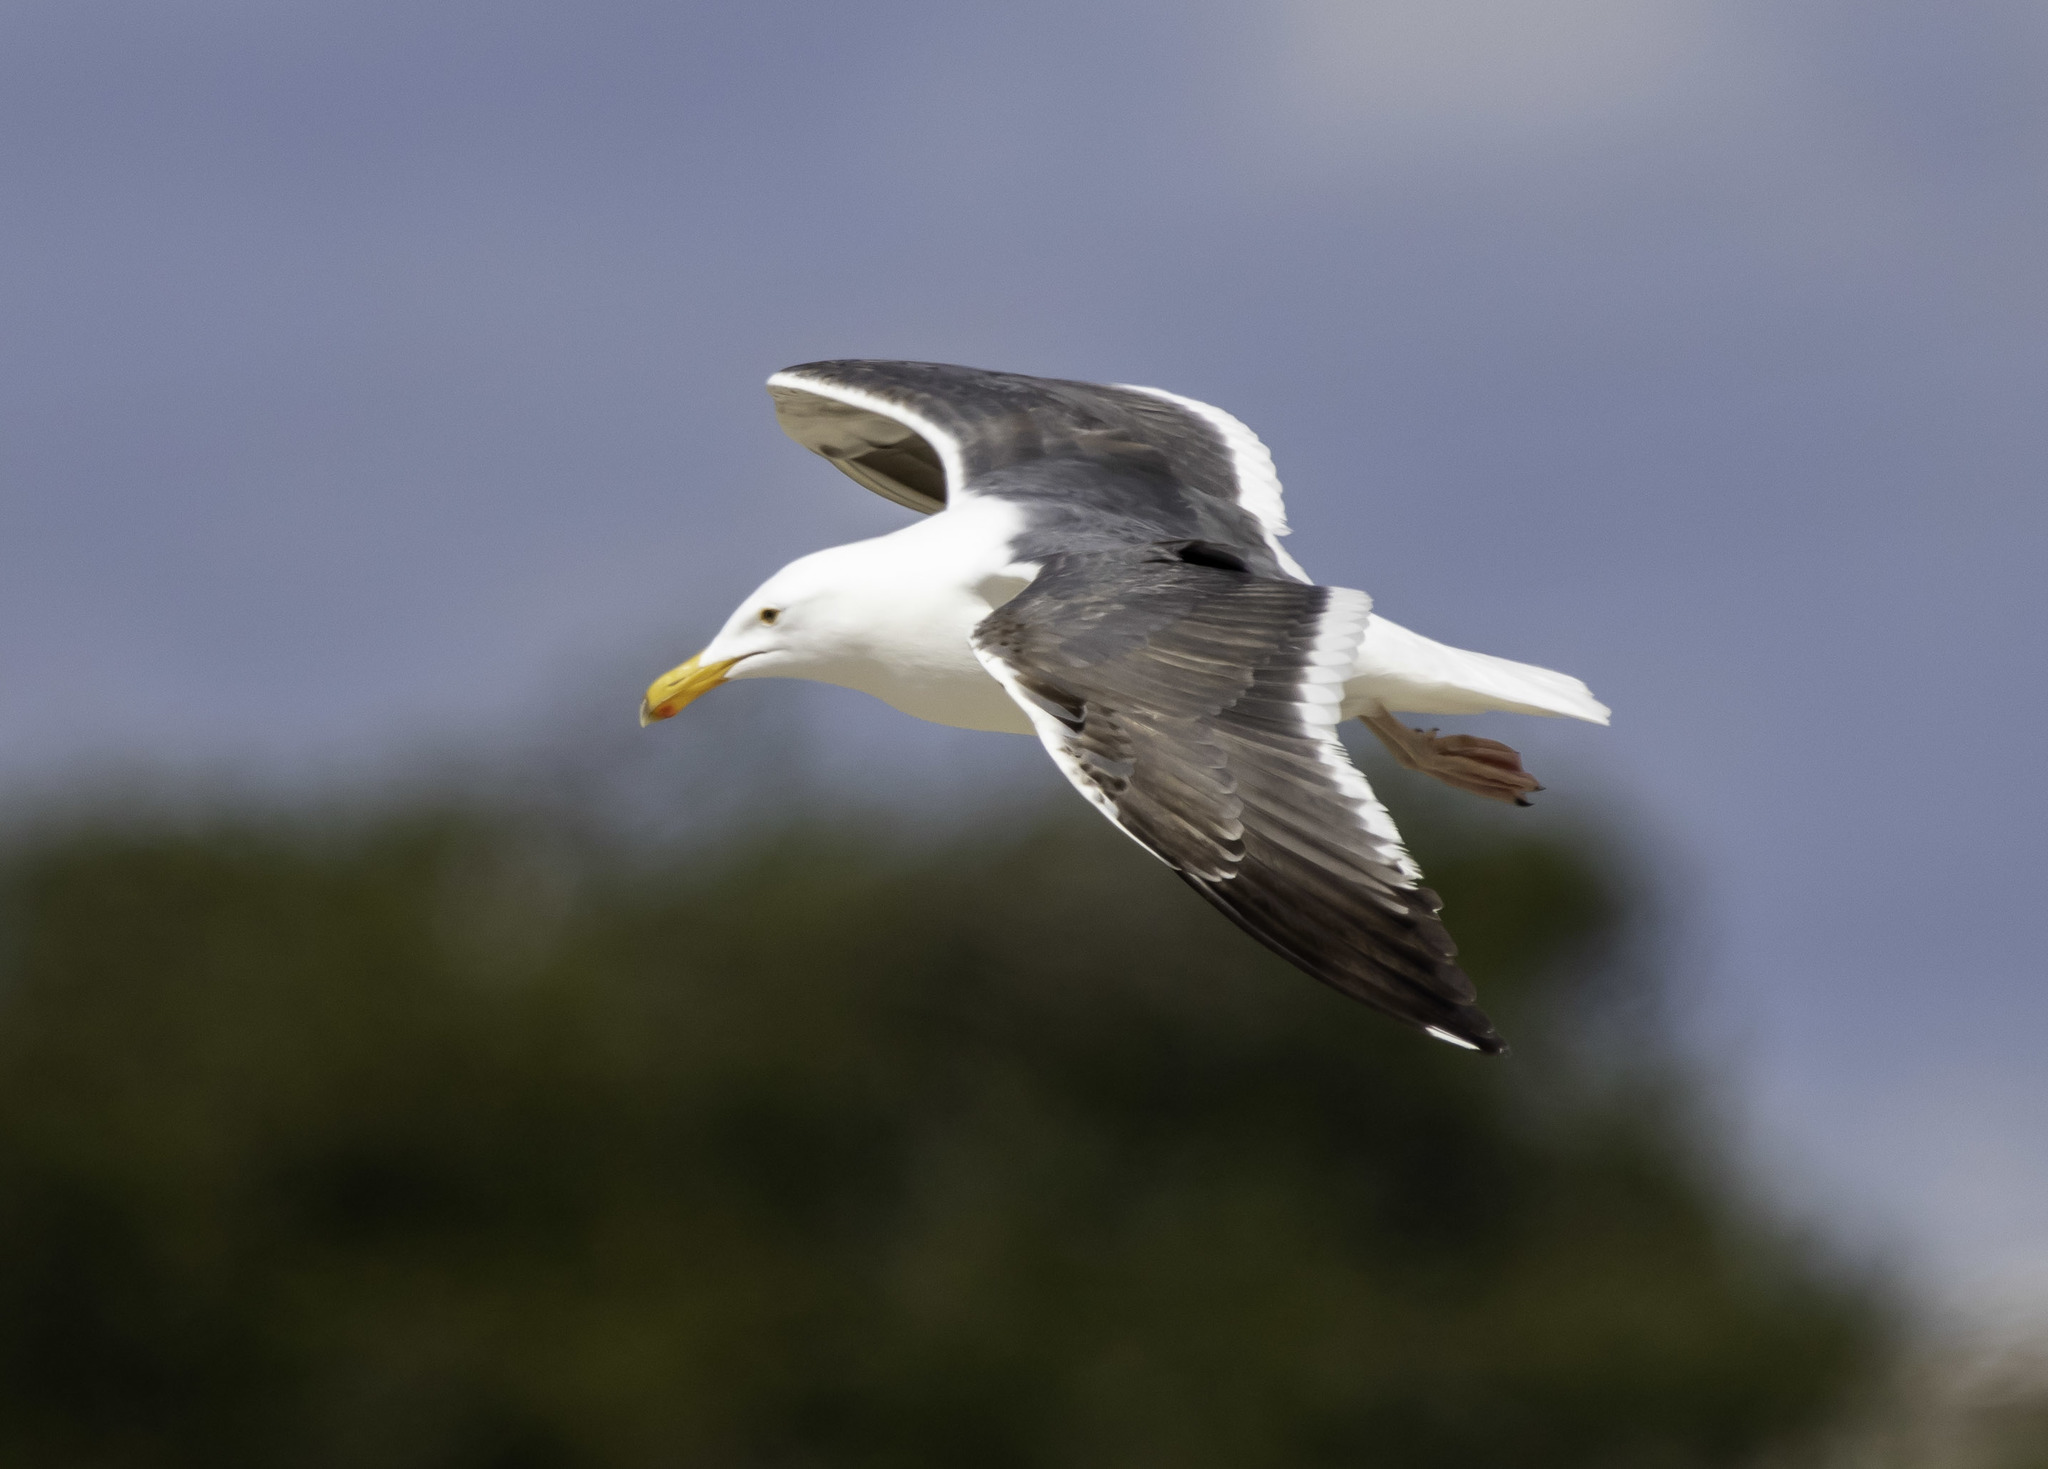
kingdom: Animalia
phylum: Chordata
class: Aves
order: Charadriiformes
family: Laridae
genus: Larus
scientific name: Larus occidentalis
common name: Western gull
